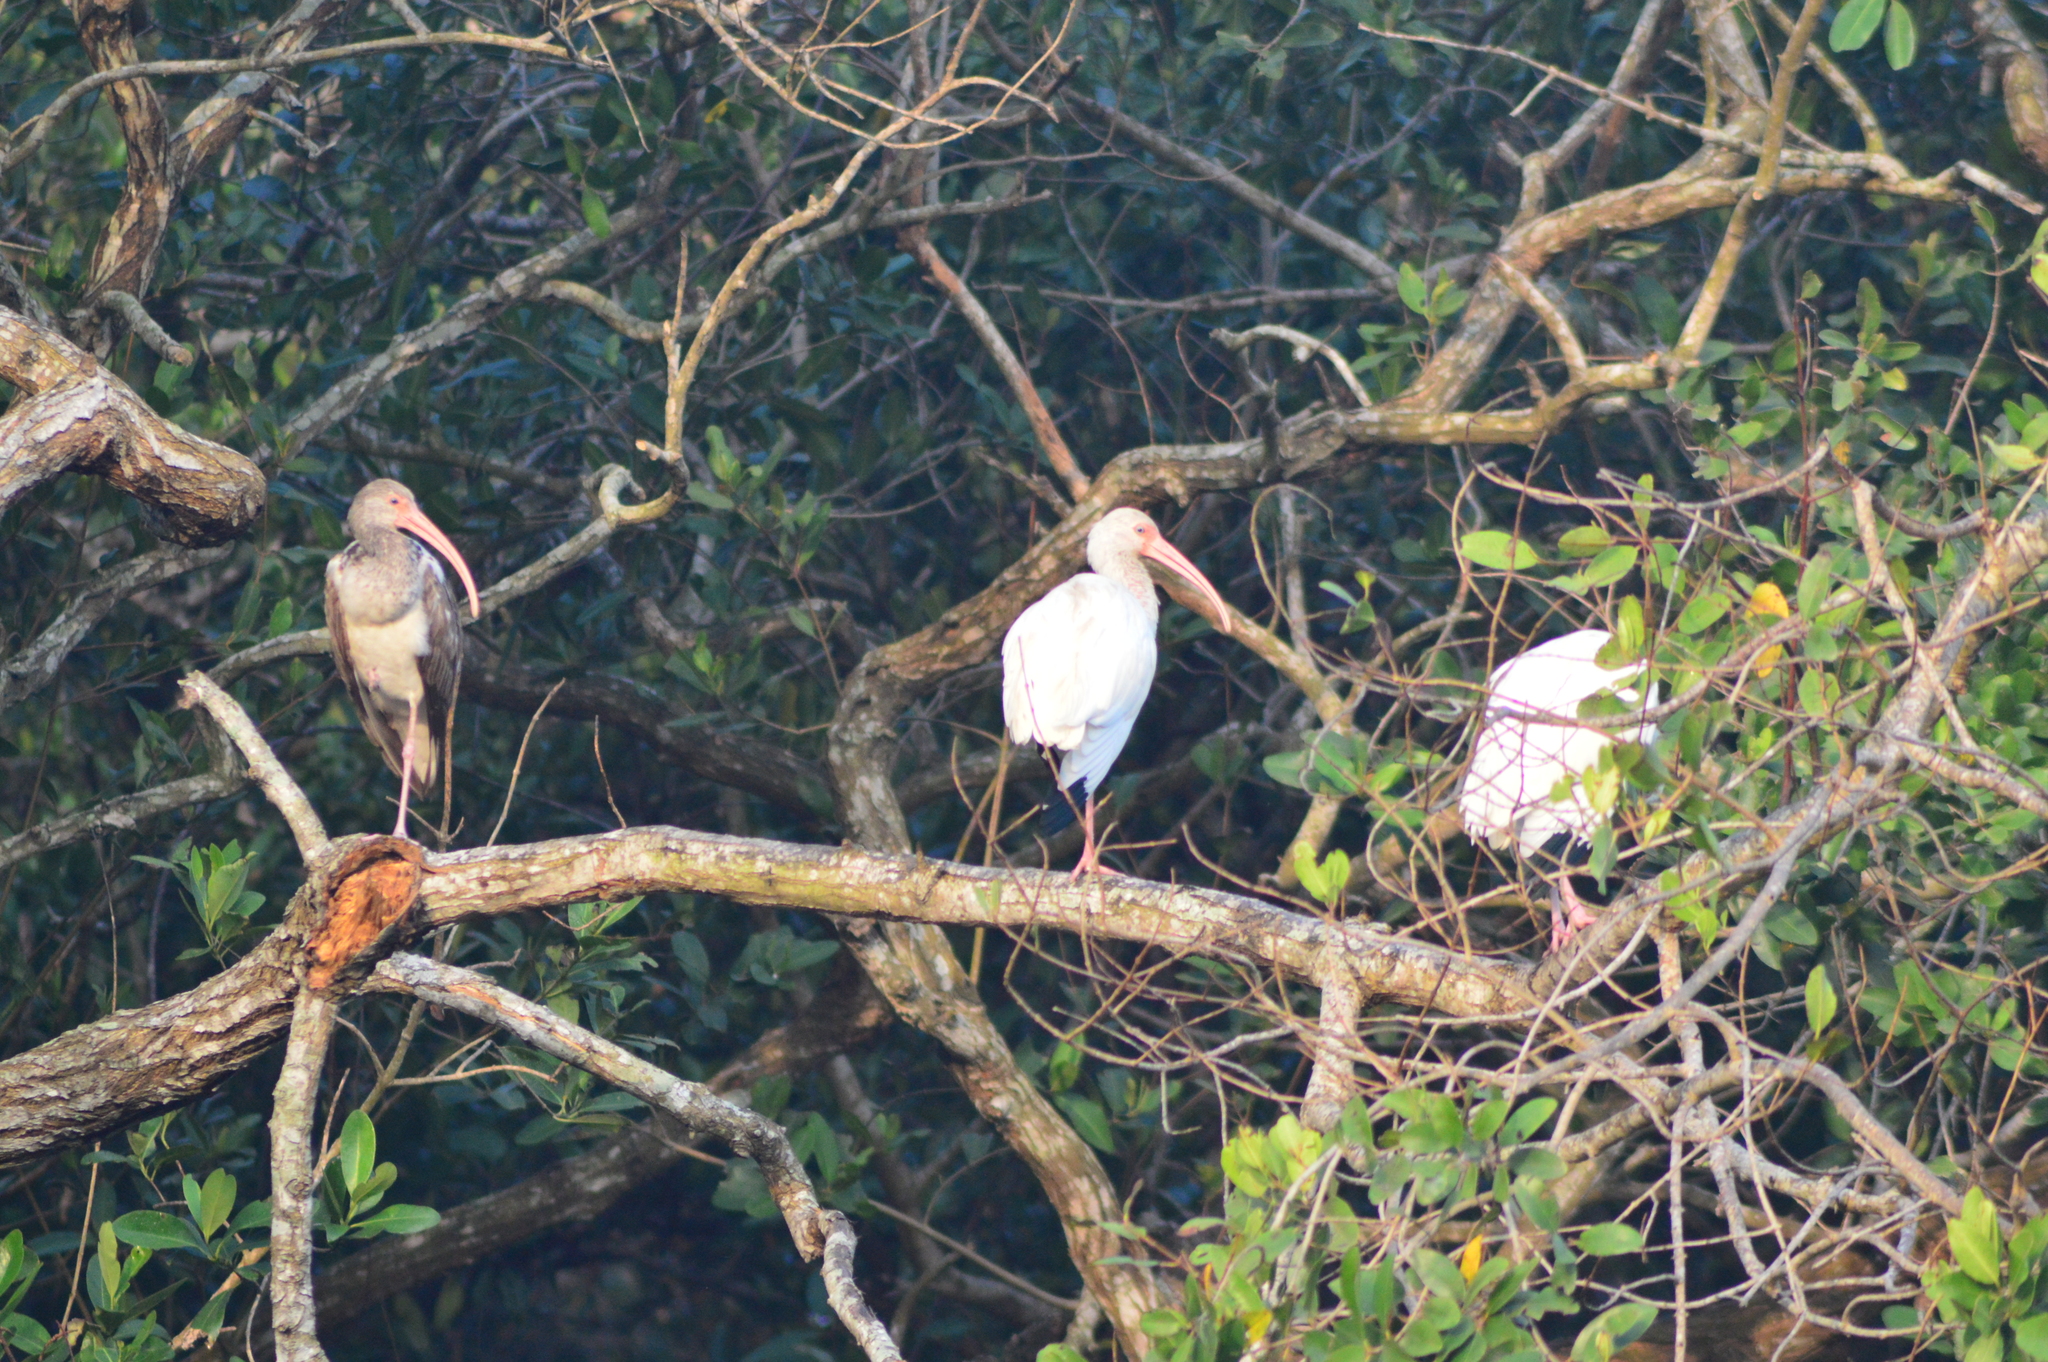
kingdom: Animalia
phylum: Chordata
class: Aves
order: Pelecaniformes
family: Threskiornithidae
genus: Eudocimus
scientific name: Eudocimus albus
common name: White ibis
